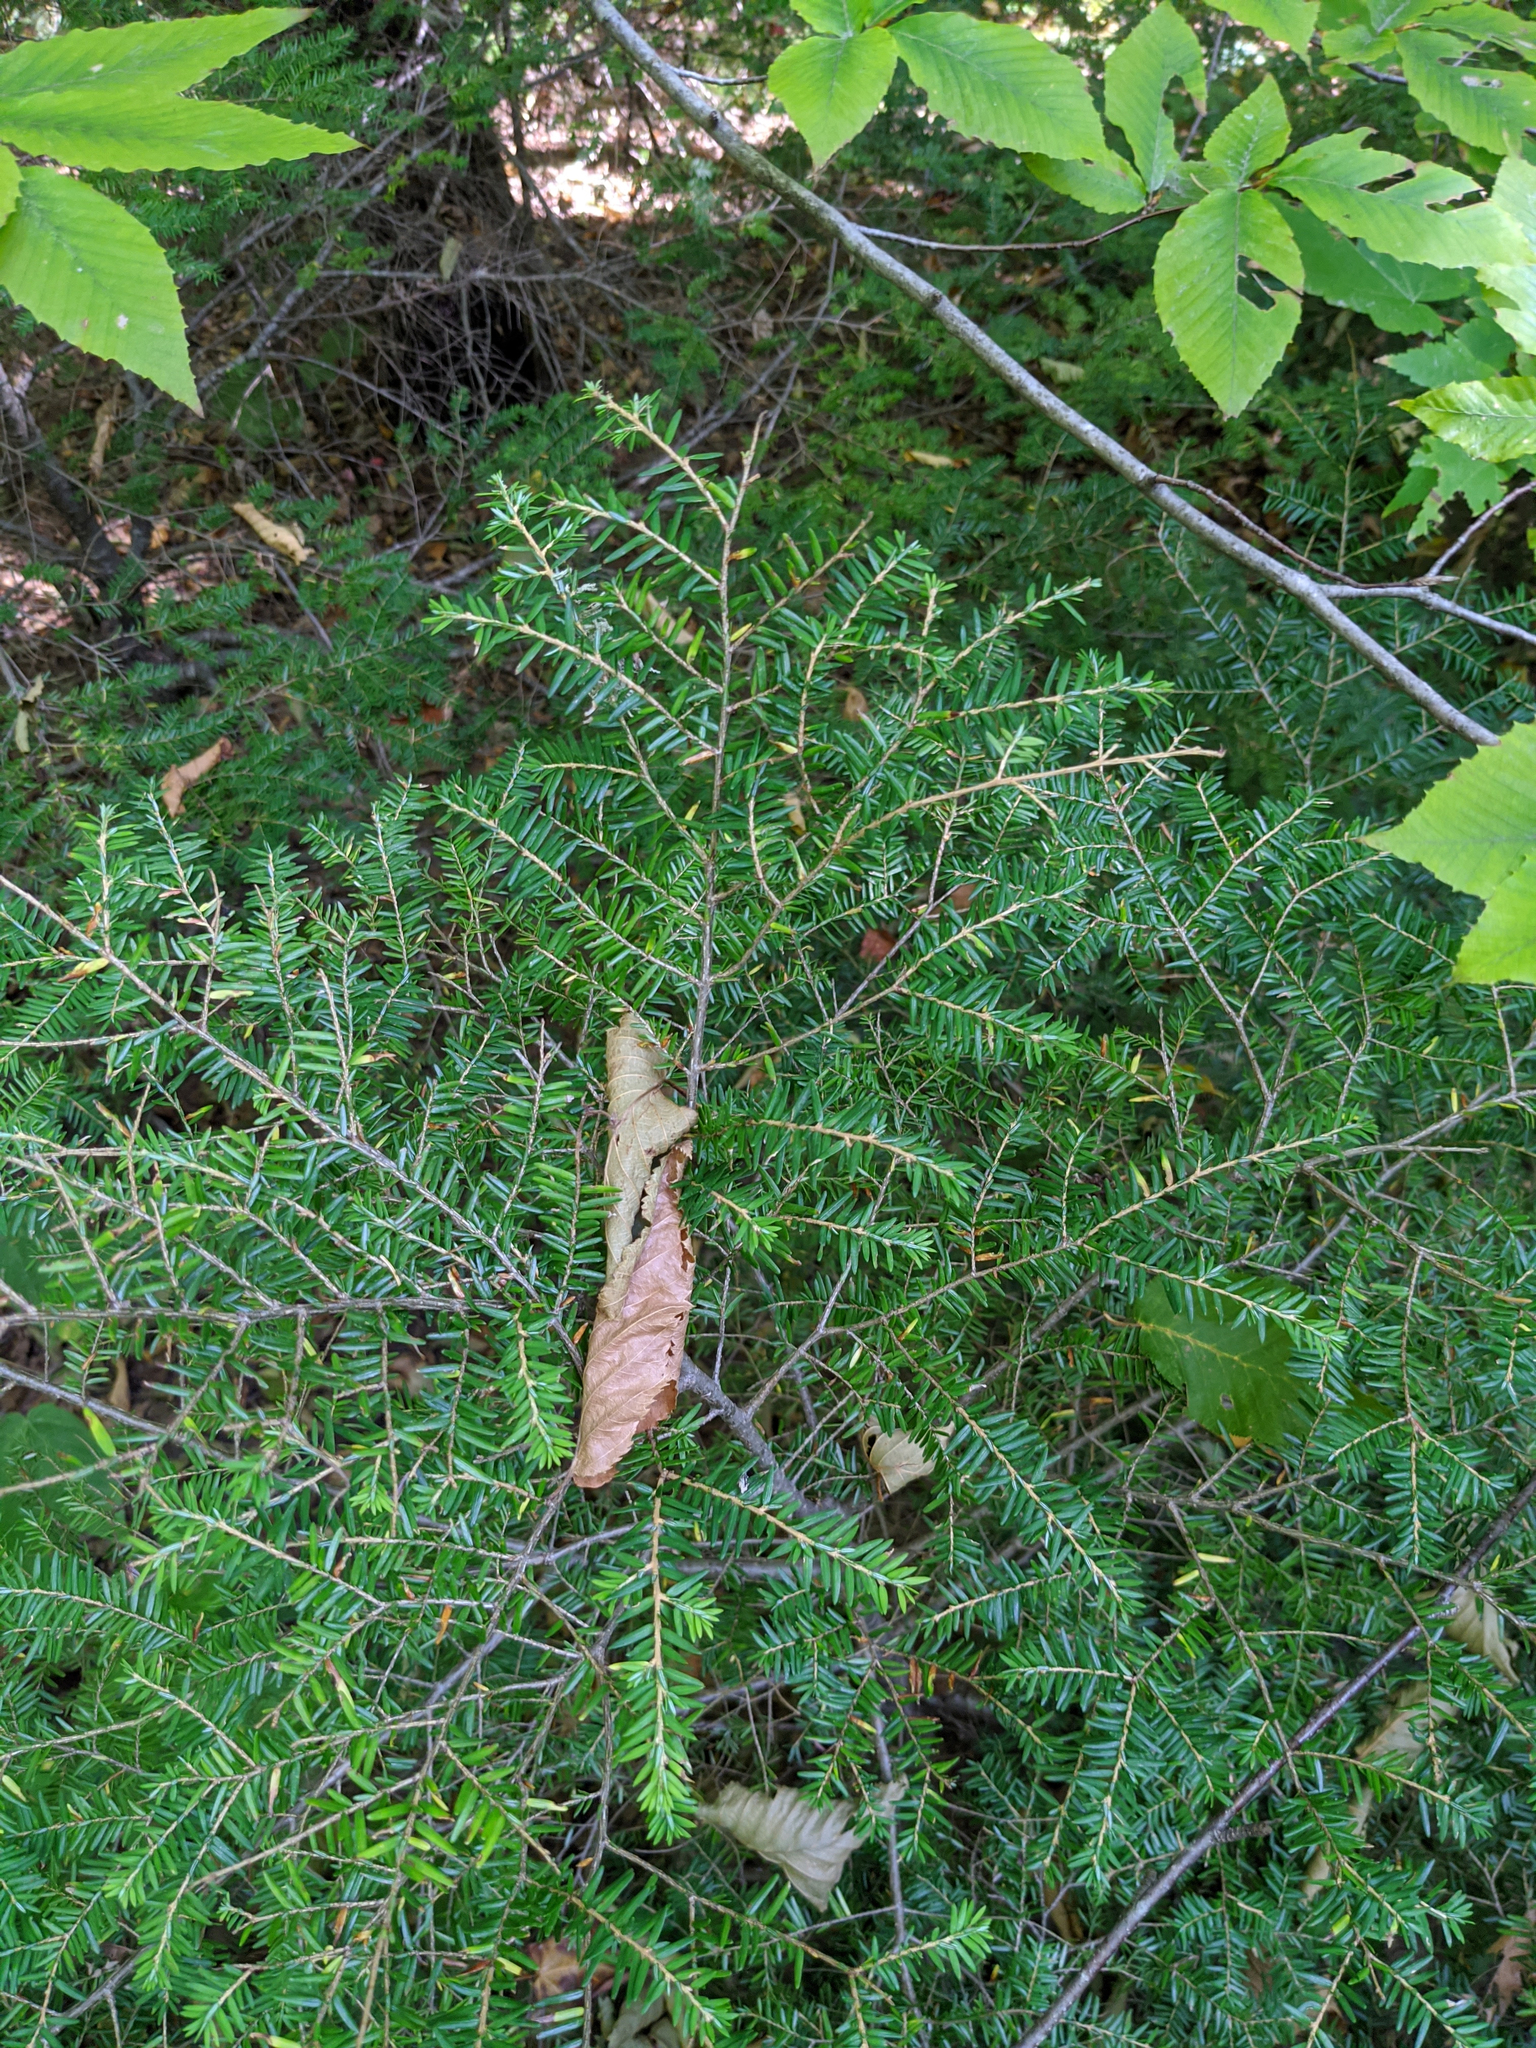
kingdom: Plantae
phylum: Tracheophyta
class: Pinopsida
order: Pinales
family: Pinaceae
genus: Tsuga
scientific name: Tsuga canadensis
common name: Eastern hemlock
